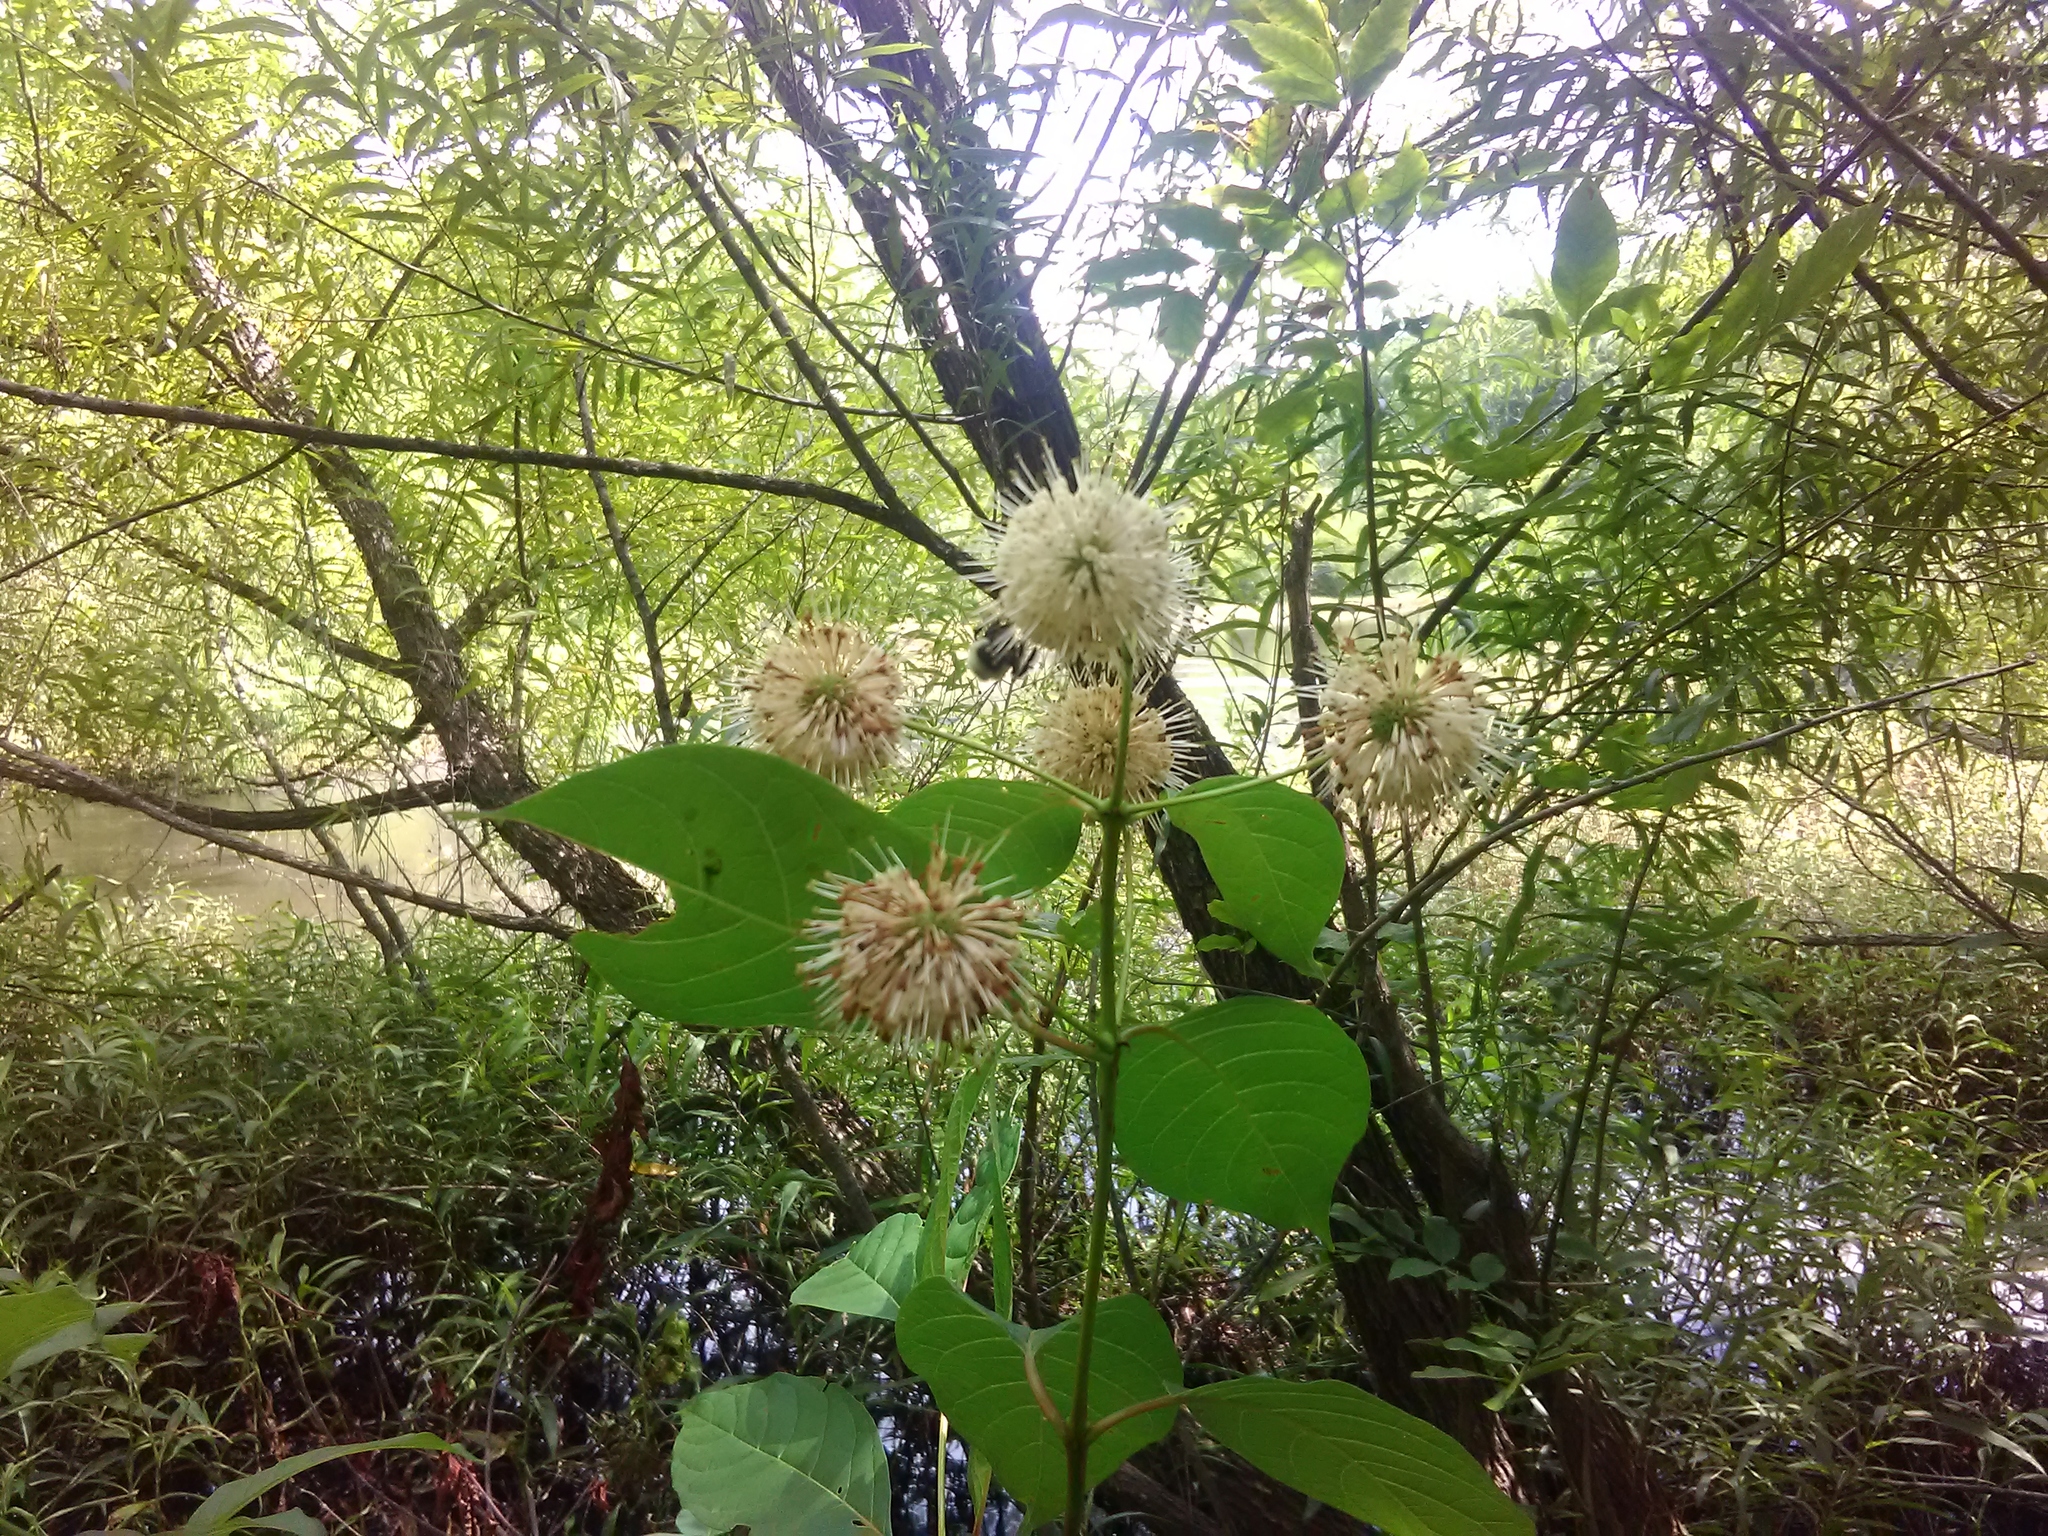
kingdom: Plantae
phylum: Tracheophyta
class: Magnoliopsida
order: Gentianales
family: Rubiaceae
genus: Cephalanthus
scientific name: Cephalanthus occidentalis
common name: Button-willow
